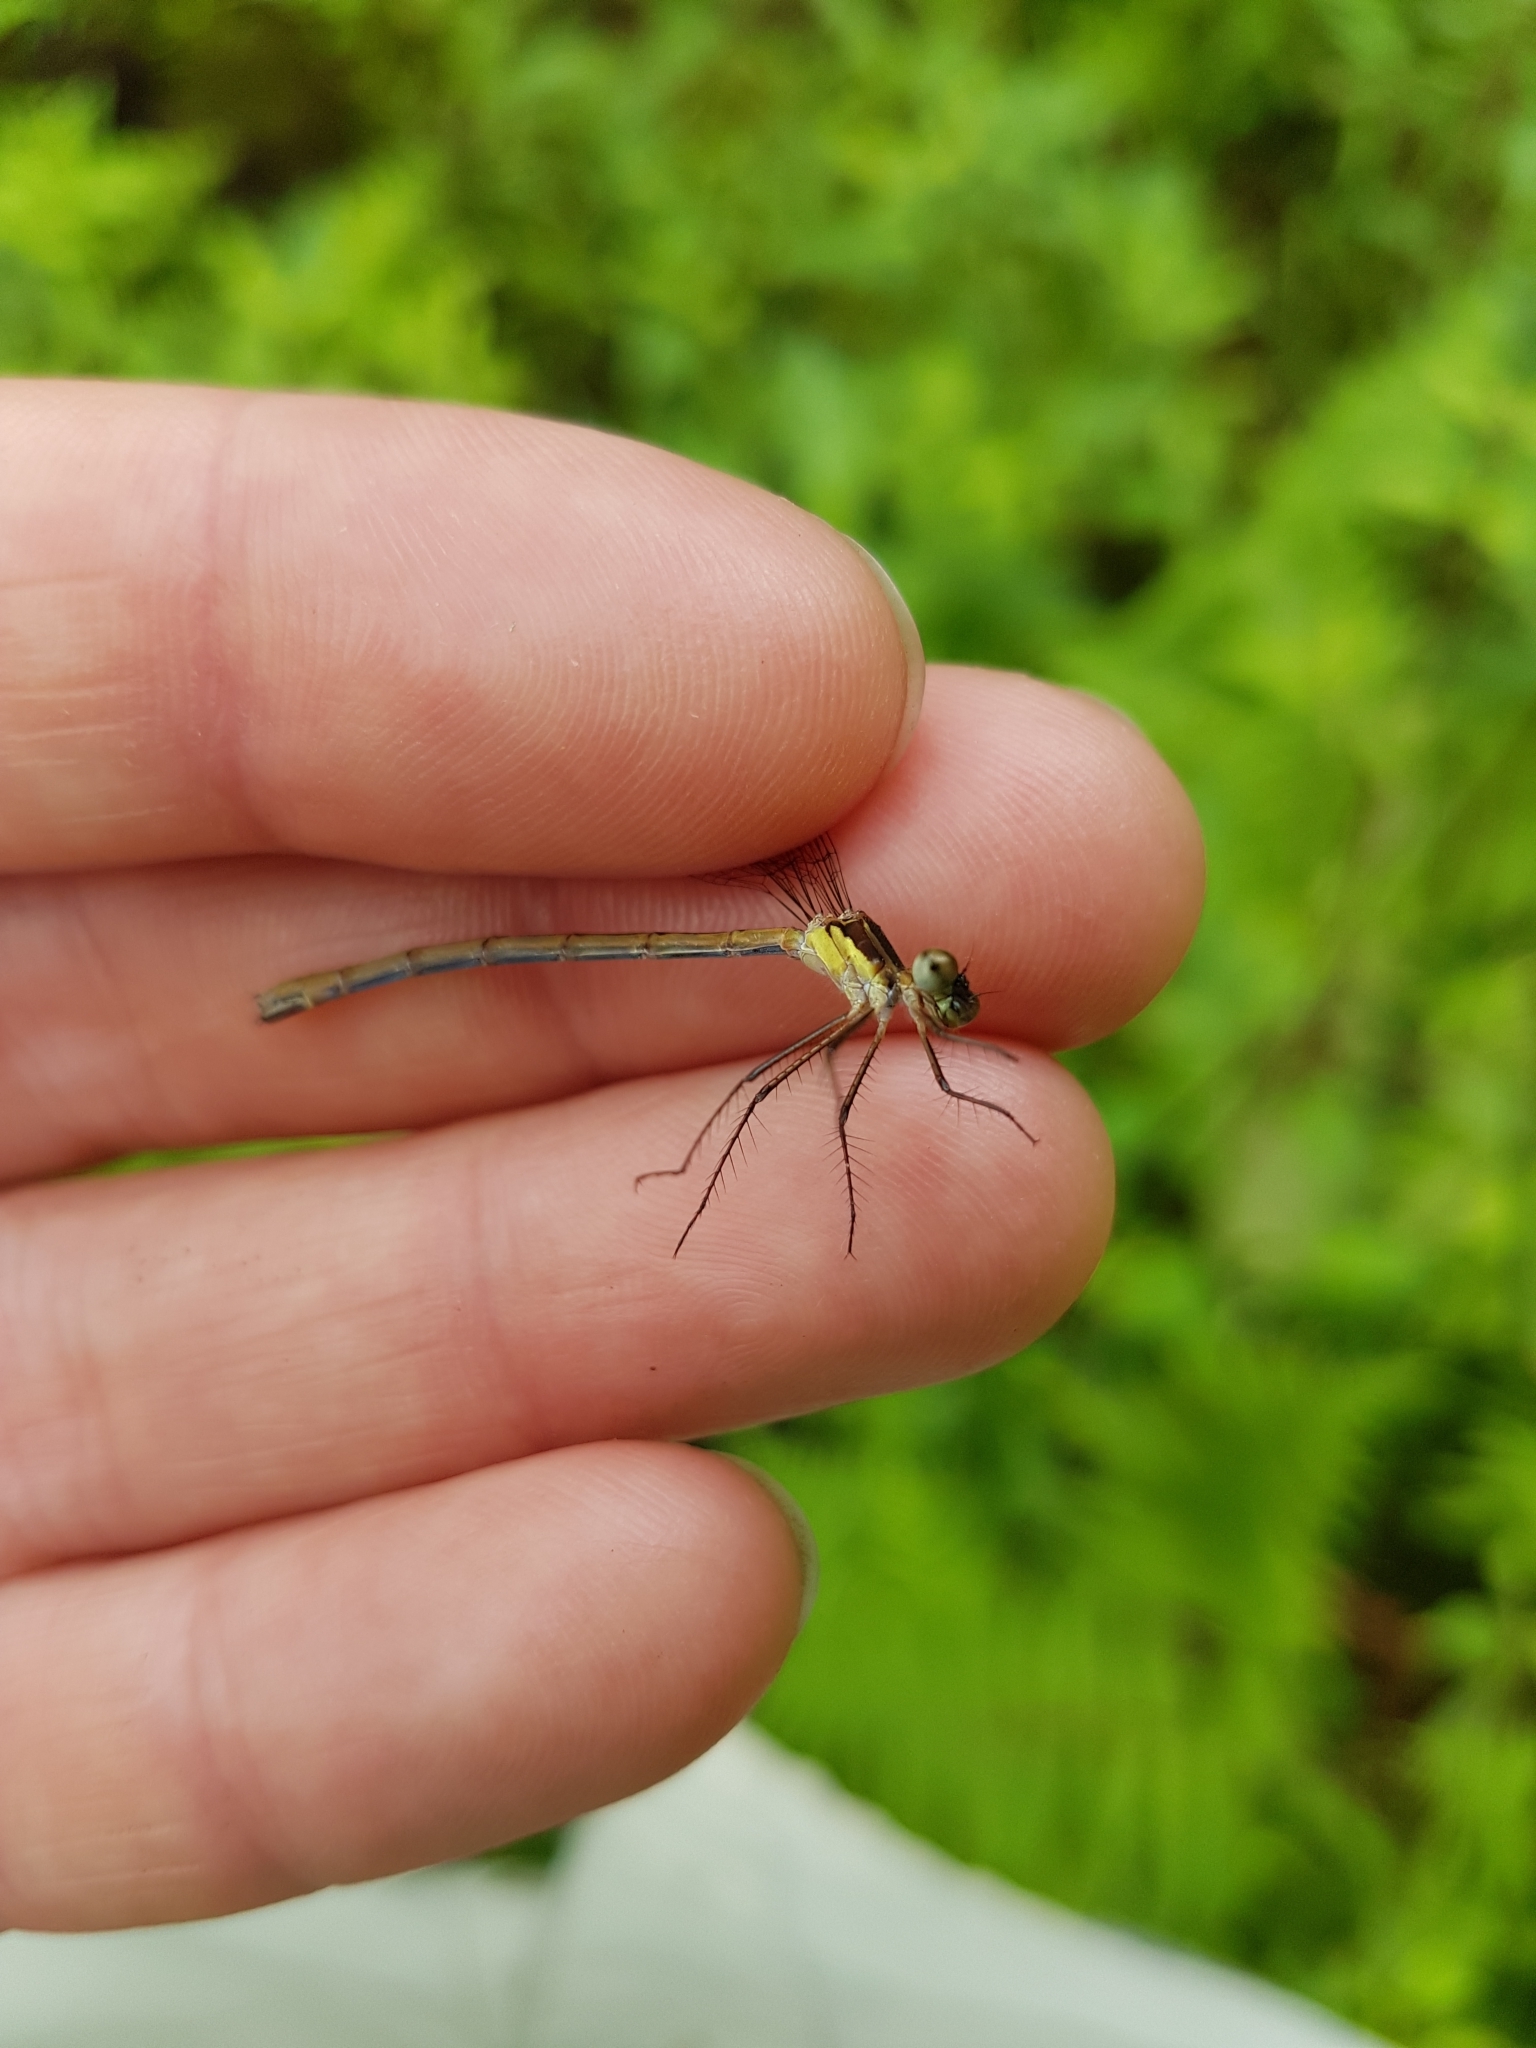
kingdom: Animalia
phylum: Arthropoda
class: Insecta
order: Odonata
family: Lestidae
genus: Lestes
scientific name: Lestes disjunctus
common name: Northern spreadwing
